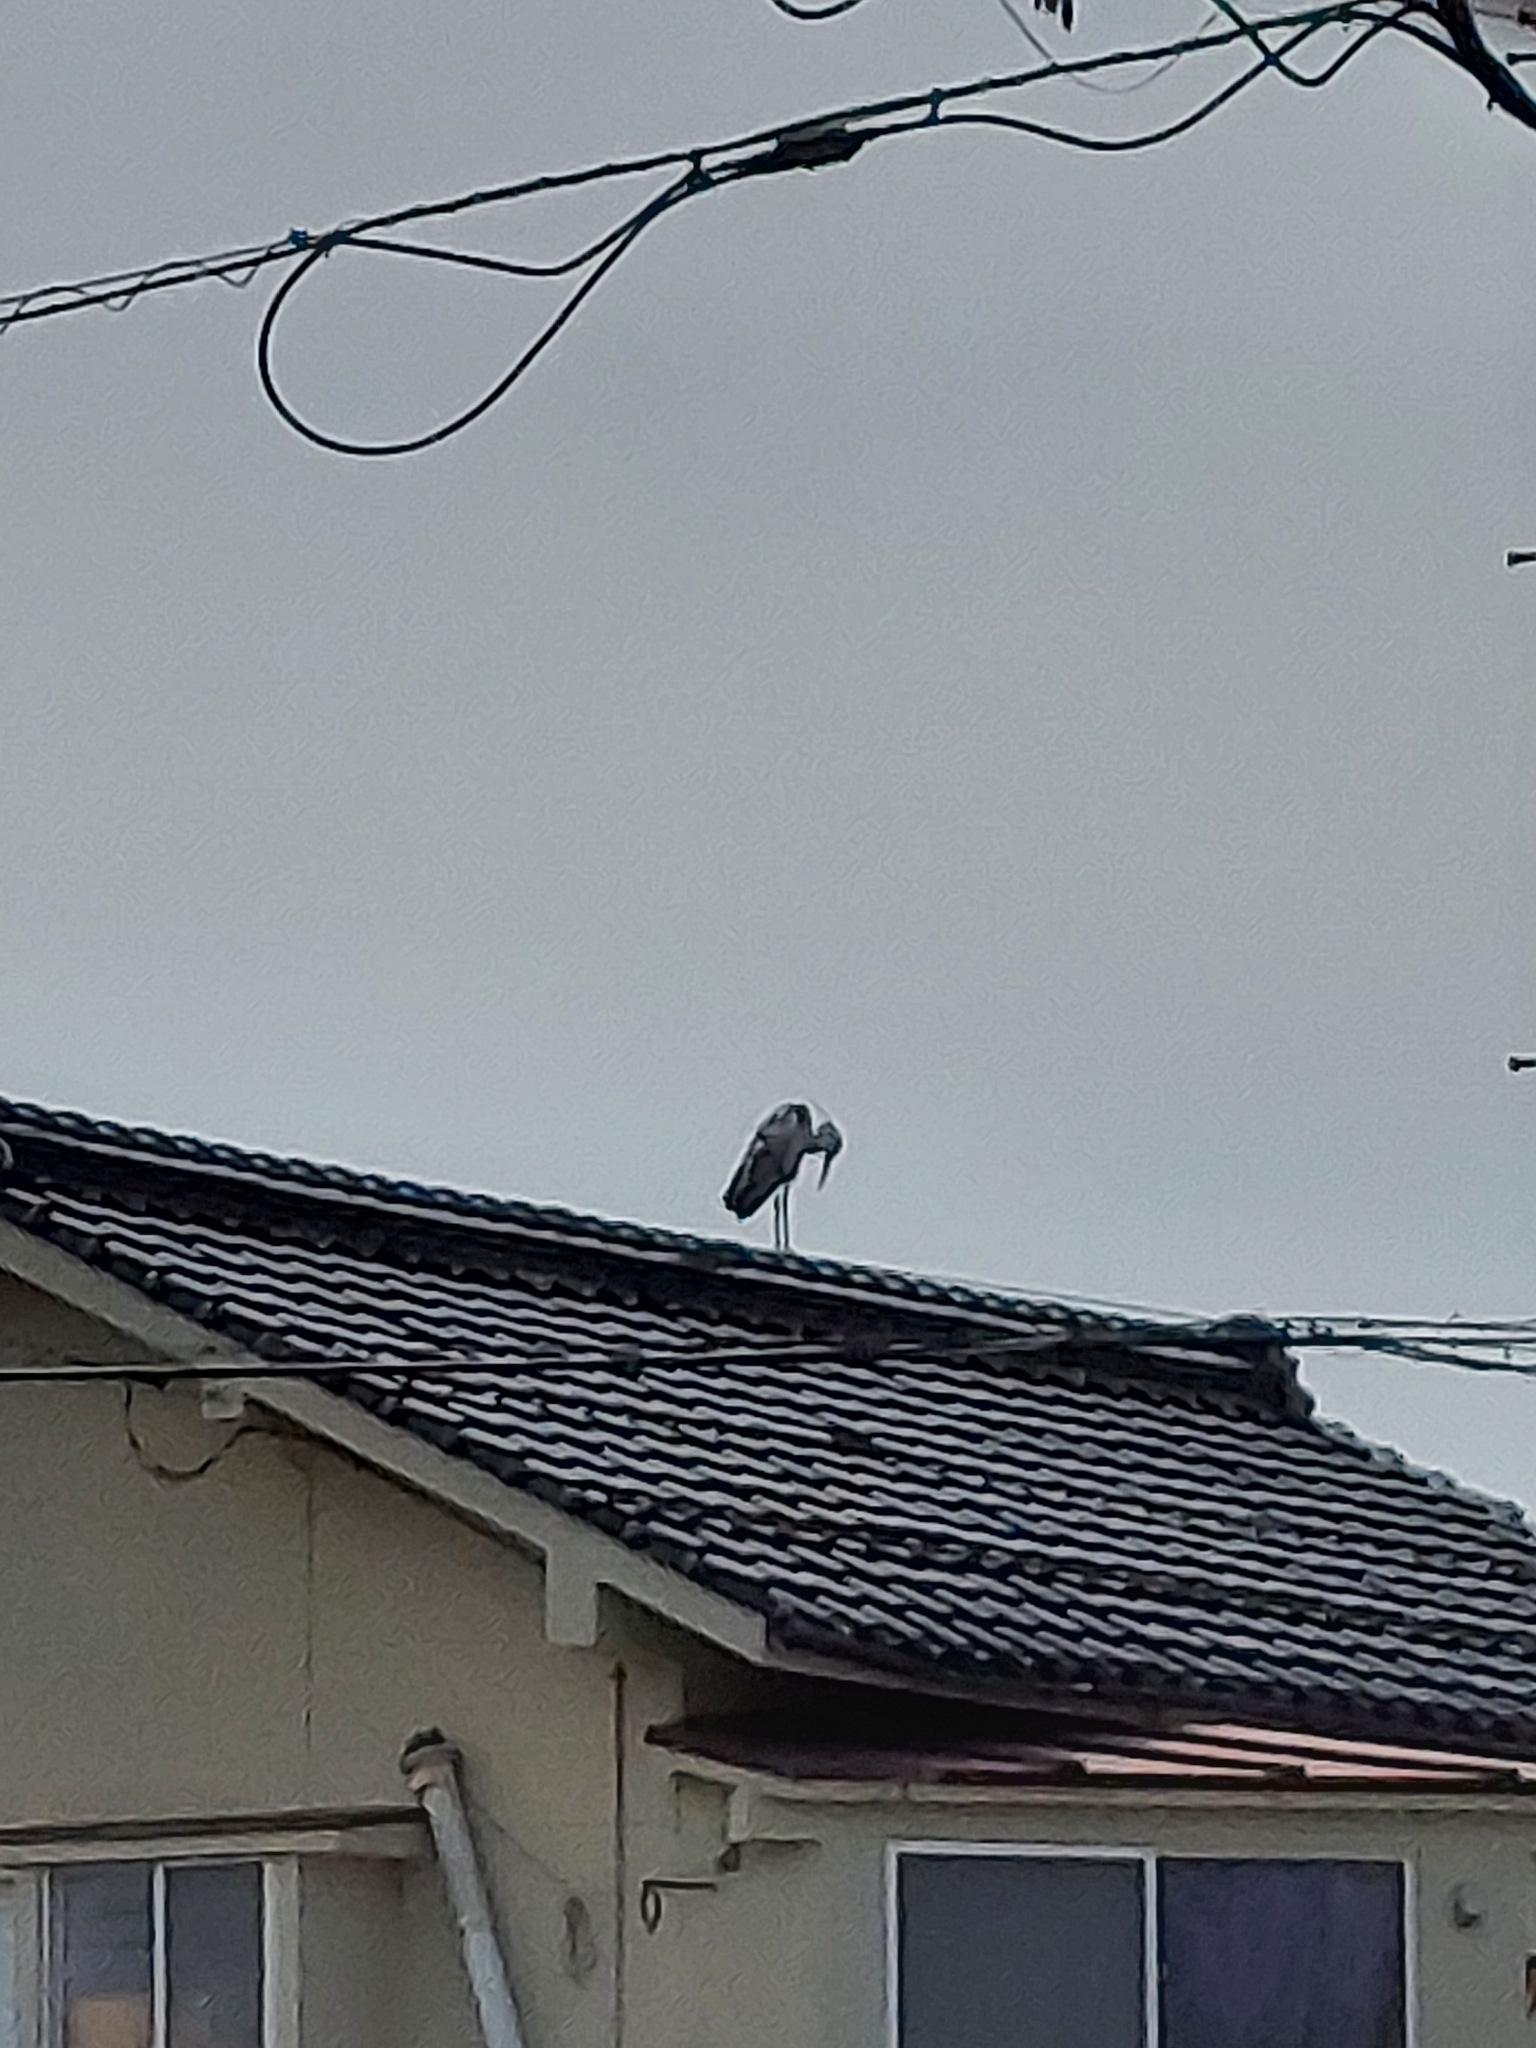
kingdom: Animalia
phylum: Chordata
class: Aves
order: Pelecaniformes
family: Ardeidae
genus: Ardea
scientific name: Ardea cinerea
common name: Grey heron
